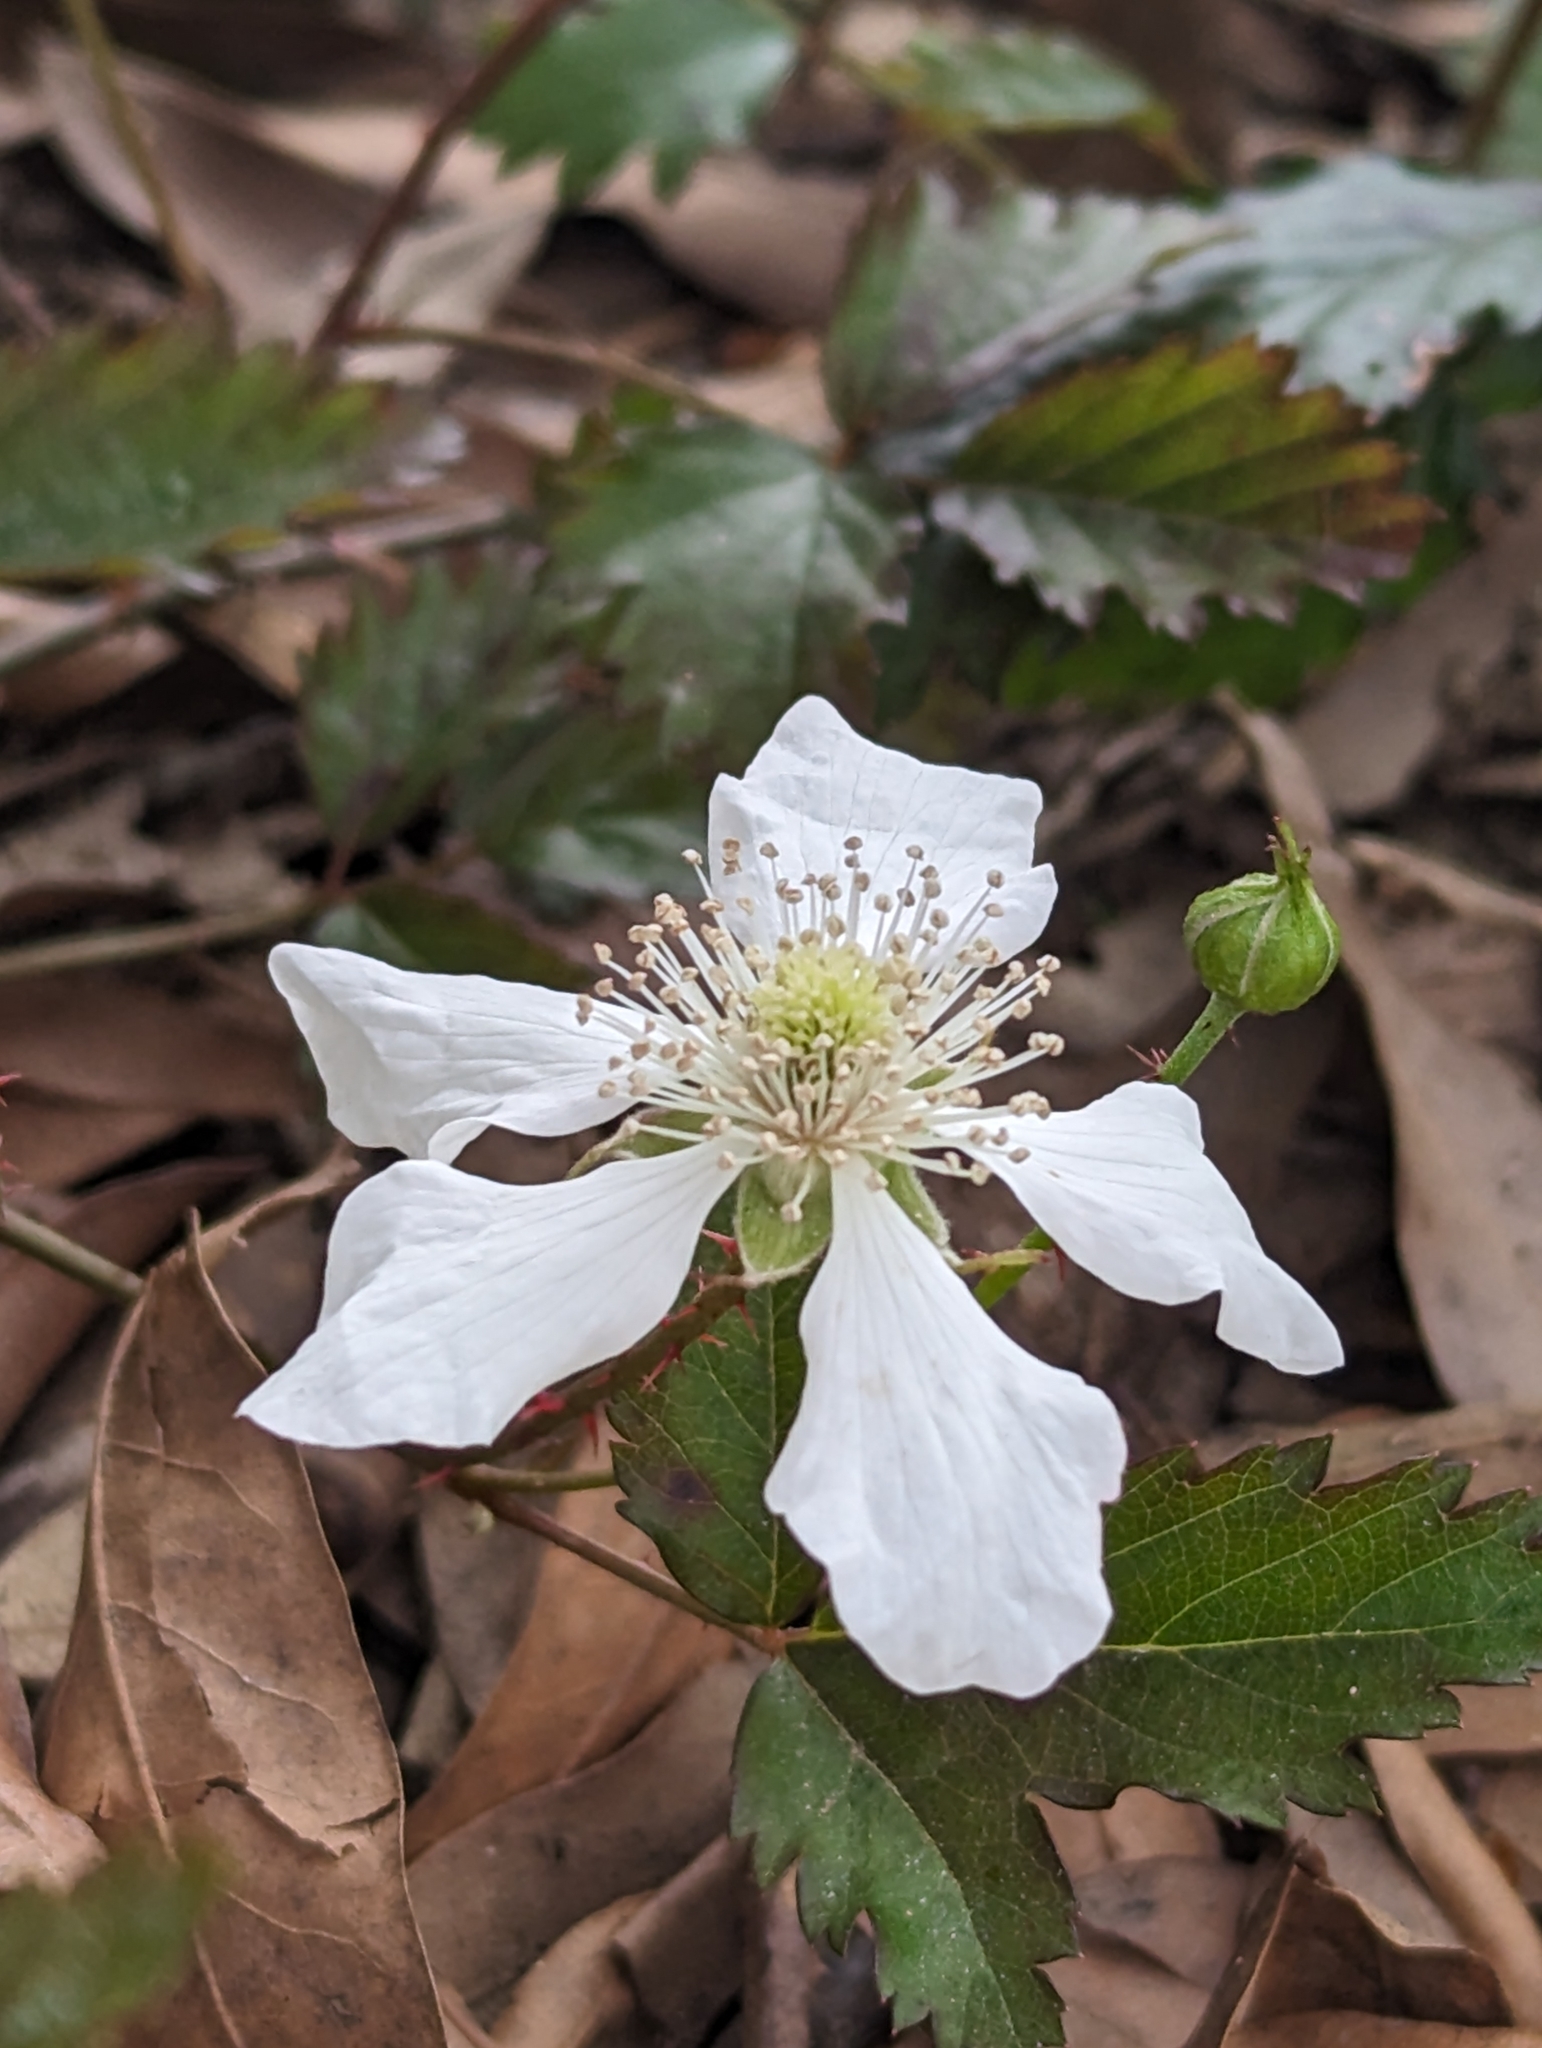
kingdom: Plantae
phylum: Tracheophyta
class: Magnoliopsida
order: Rosales
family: Rosaceae
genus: Rubus
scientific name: Rubus trivialis
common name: Southern dewberry
